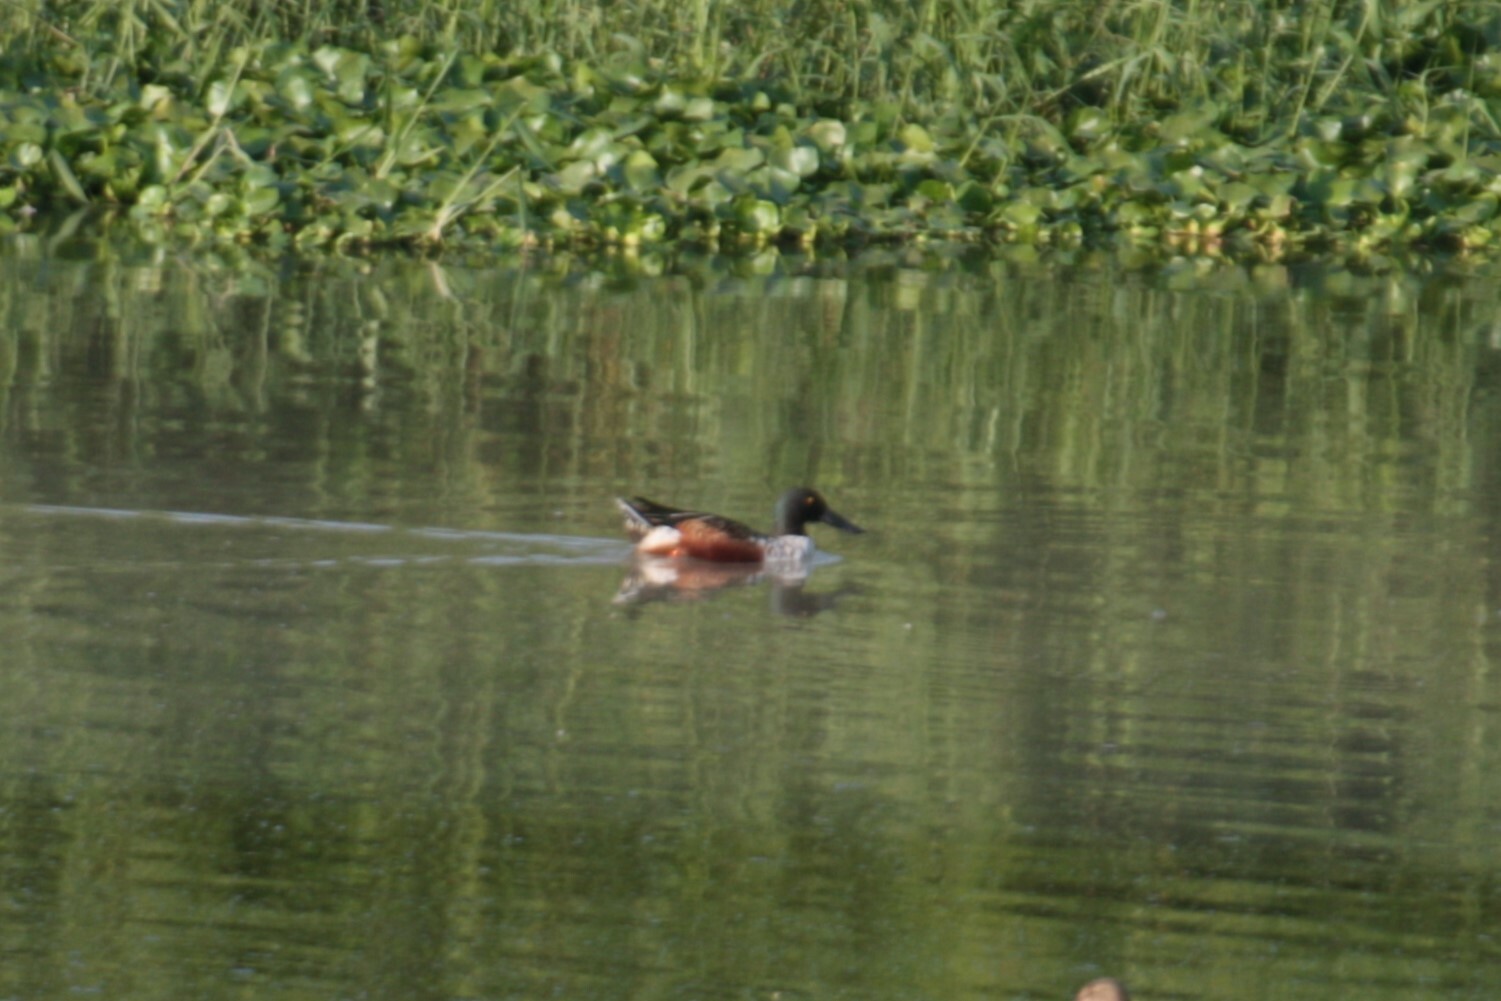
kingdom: Animalia
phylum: Chordata
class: Aves
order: Anseriformes
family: Anatidae
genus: Spatula
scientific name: Spatula clypeata
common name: Northern shoveler
